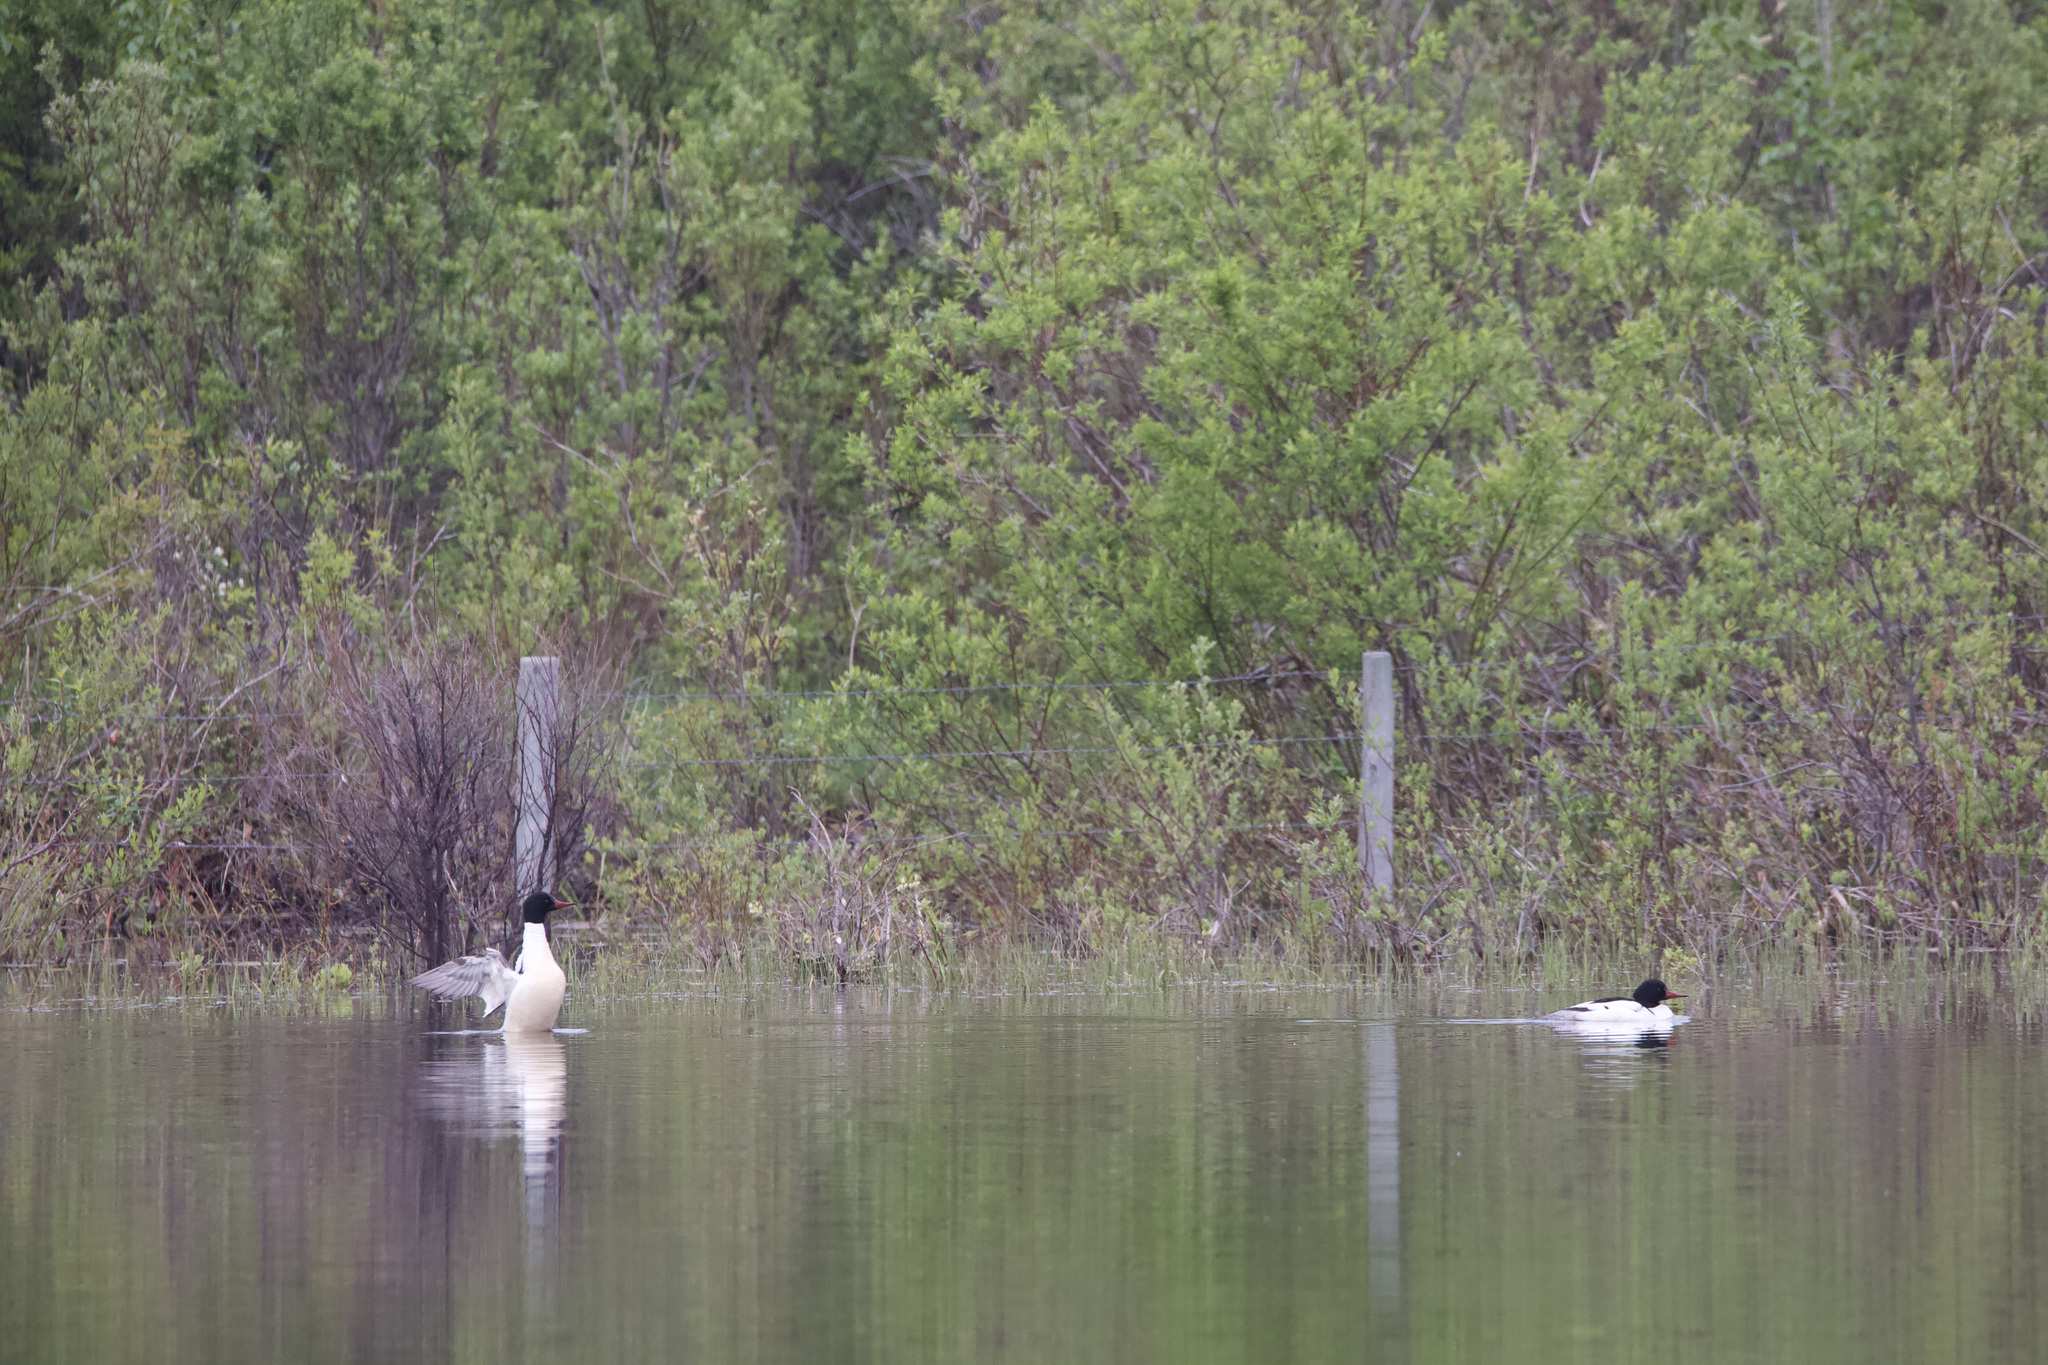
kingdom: Animalia
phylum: Chordata
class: Aves
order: Anseriformes
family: Anatidae
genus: Mergus
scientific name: Mergus merganser
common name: Common merganser
